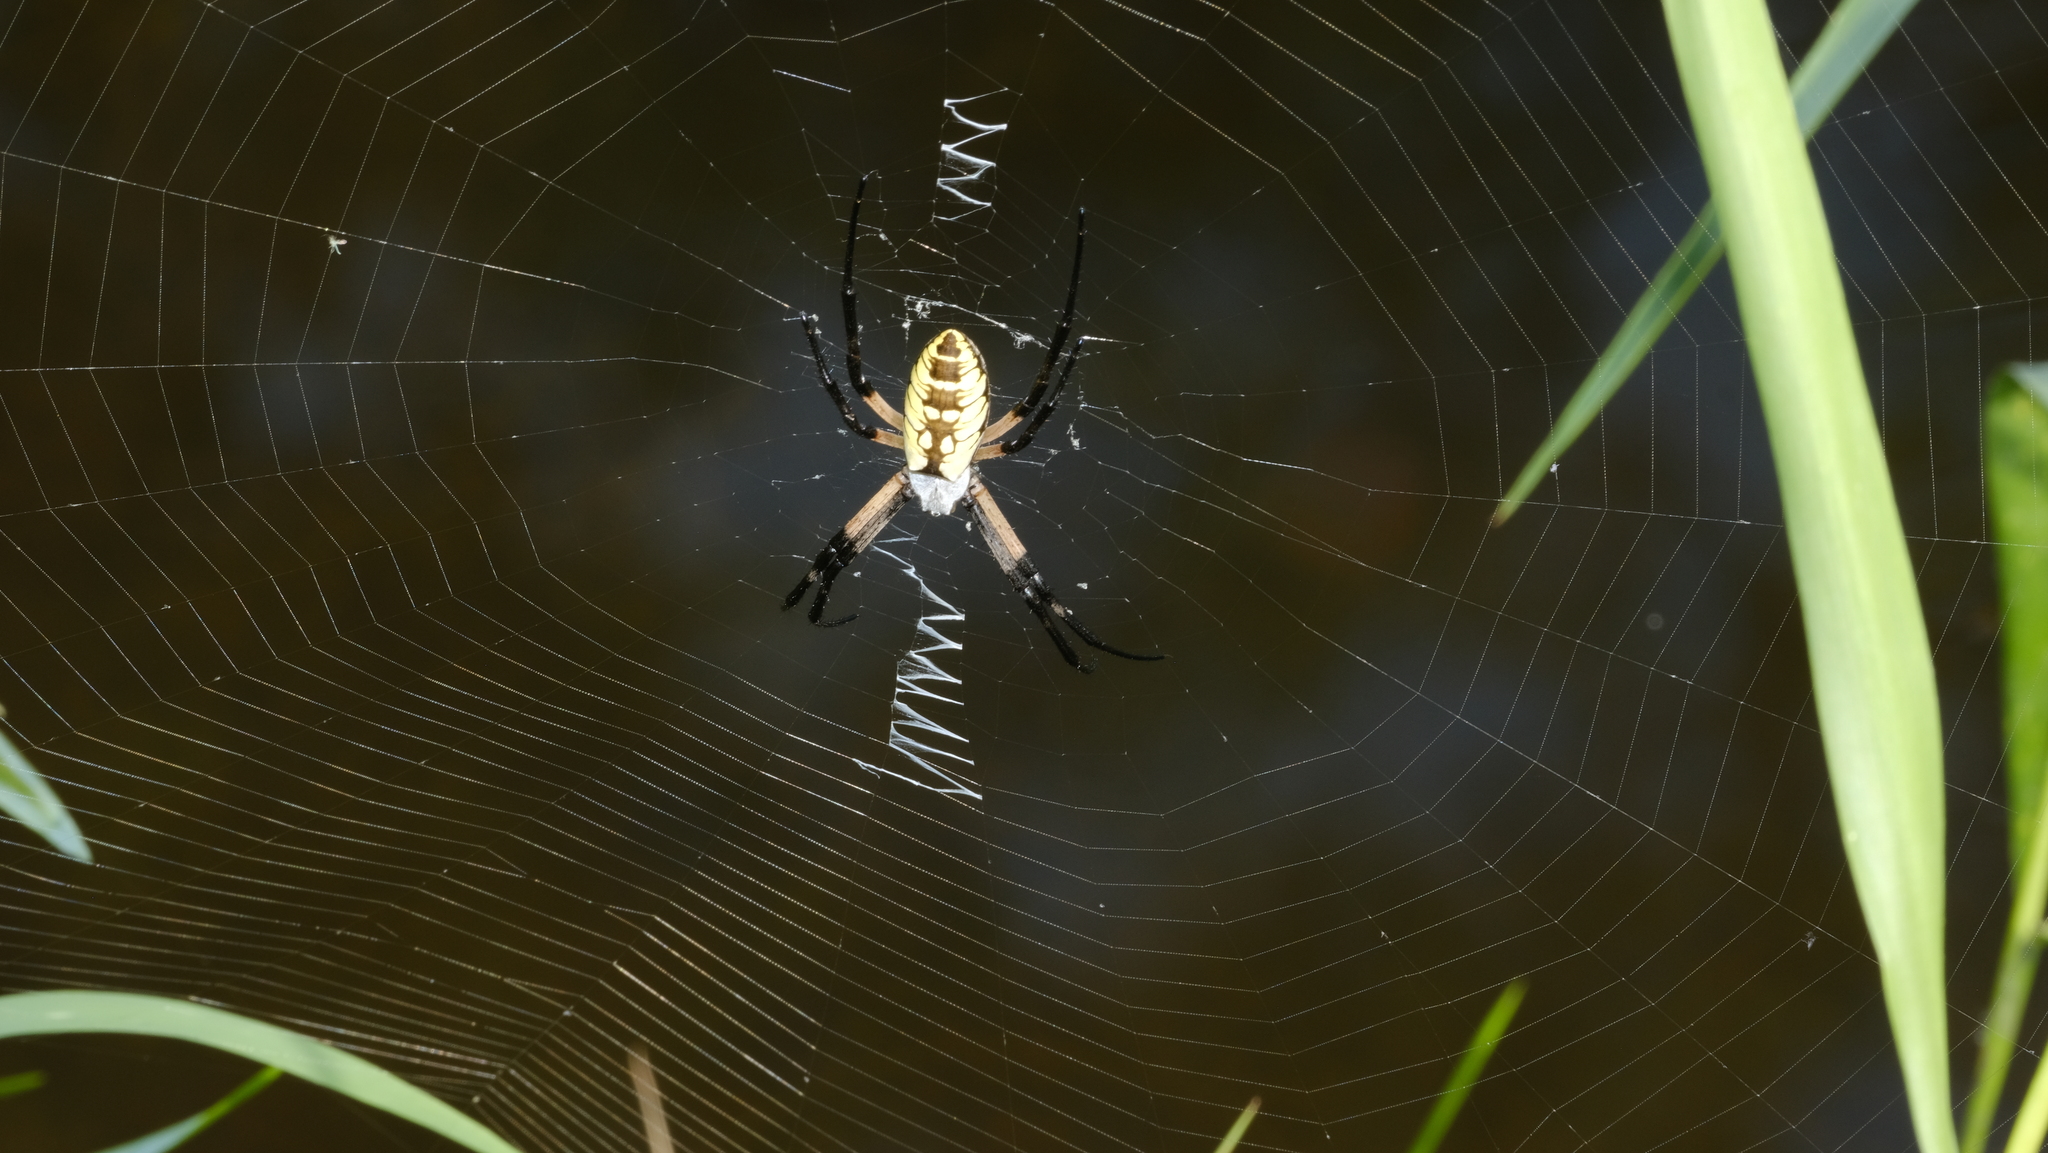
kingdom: Animalia
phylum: Arthropoda
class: Arachnida
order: Araneae
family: Araneidae
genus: Argiope
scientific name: Argiope aurantia
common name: Orb weavers
